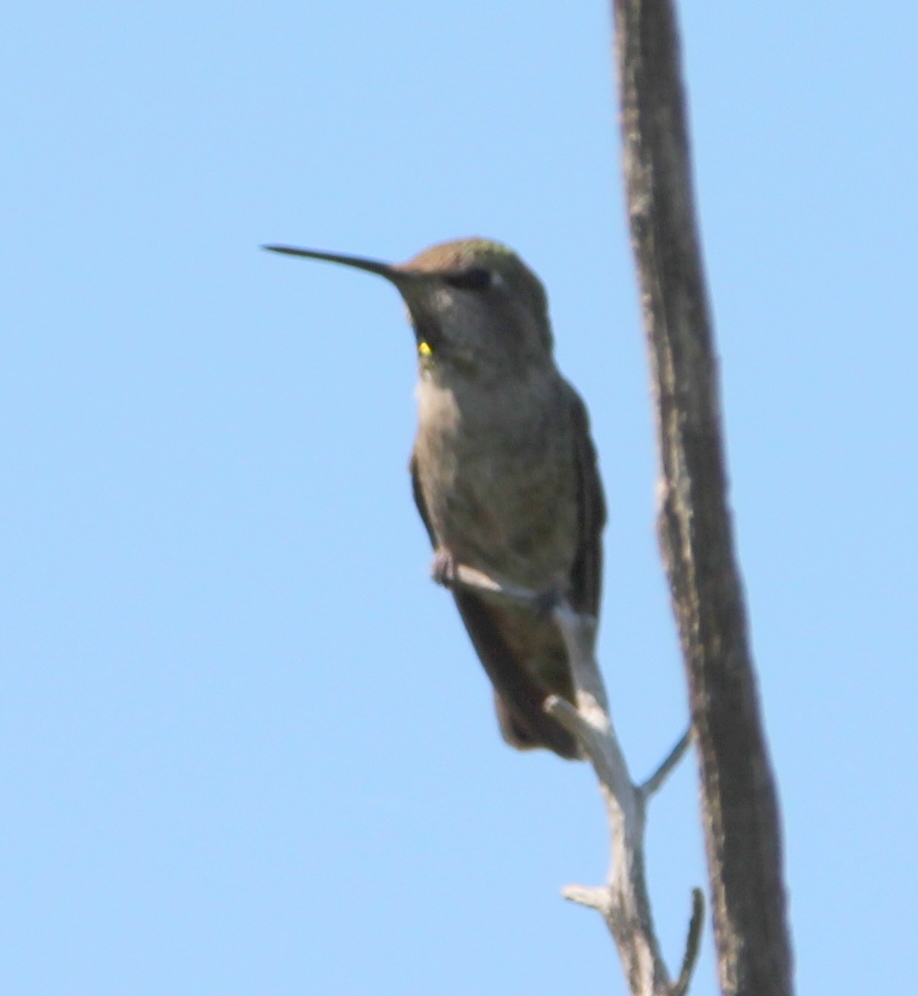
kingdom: Animalia
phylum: Chordata
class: Aves
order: Apodiformes
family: Trochilidae
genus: Calypte
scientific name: Calypte anna
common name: Anna's hummingbird
